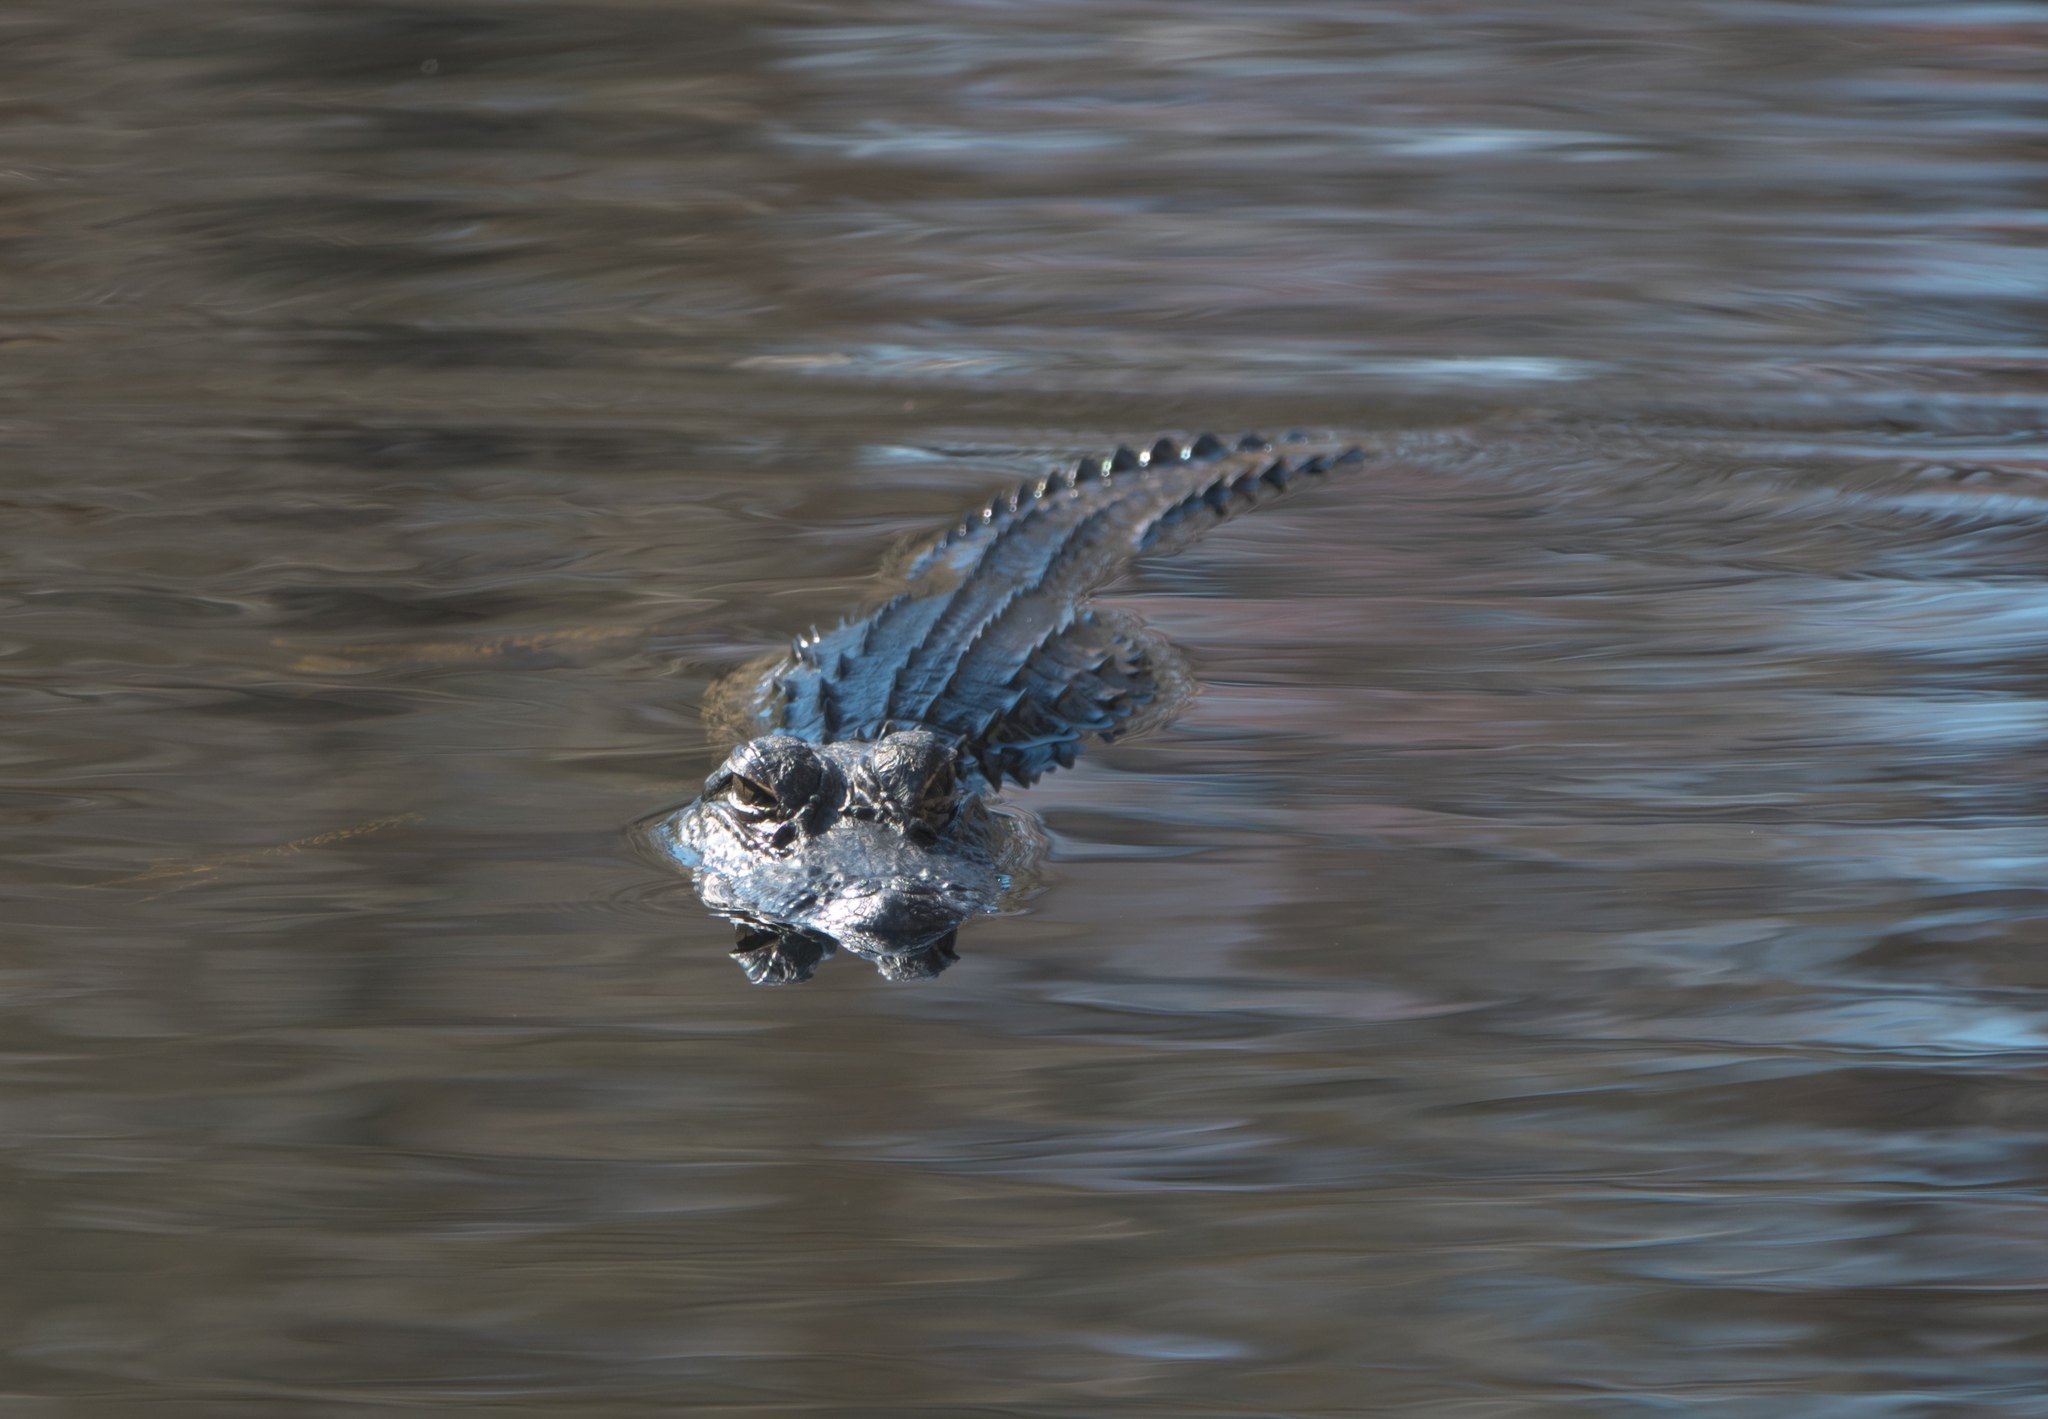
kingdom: Animalia
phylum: Chordata
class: Crocodylia
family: Alligatoridae
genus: Alligator
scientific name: Alligator mississippiensis
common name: American alligator
